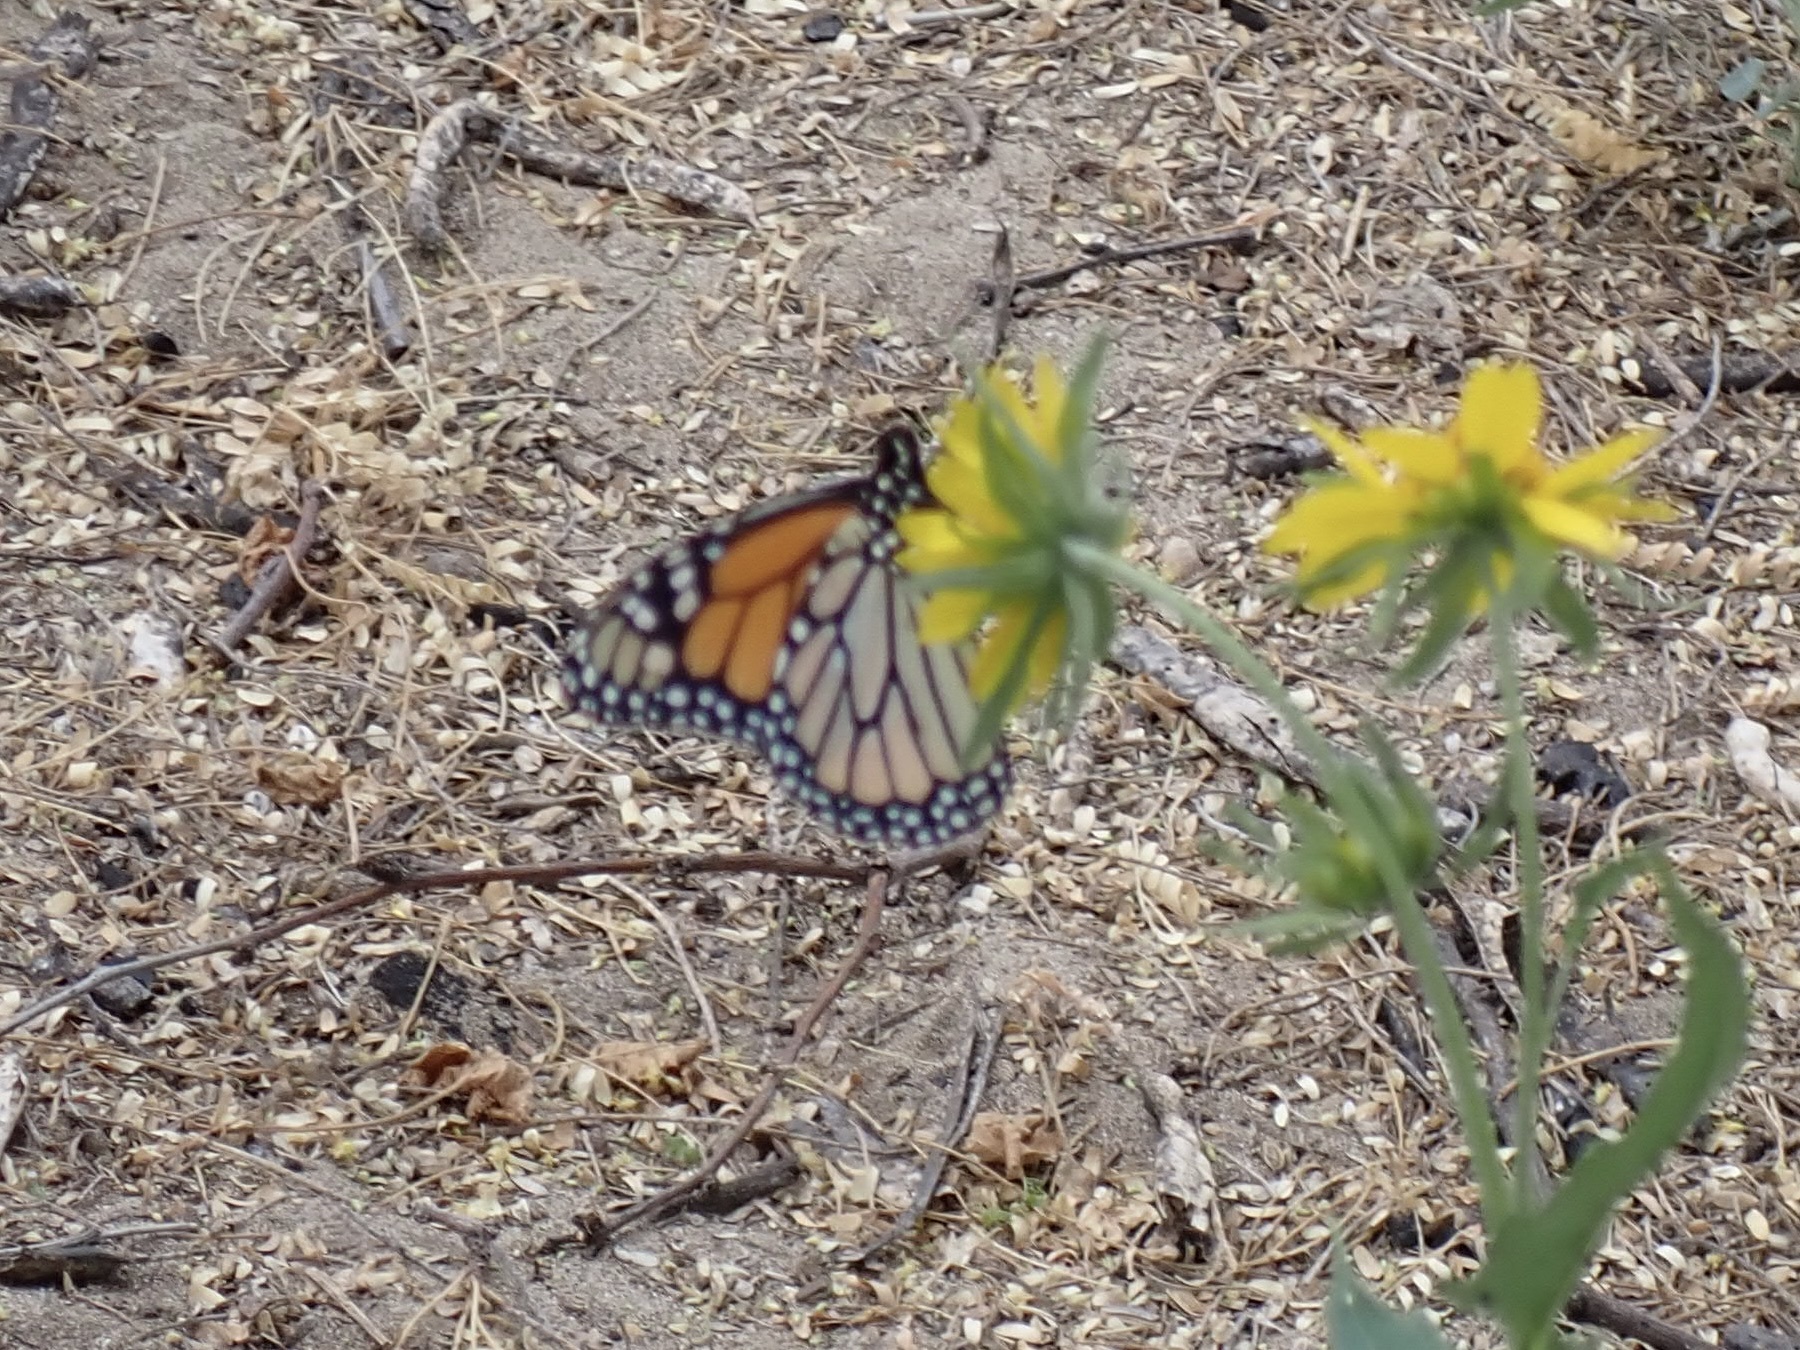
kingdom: Animalia
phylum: Arthropoda
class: Insecta
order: Lepidoptera
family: Nymphalidae
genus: Danaus
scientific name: Danaus plexippus
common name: Monarch
